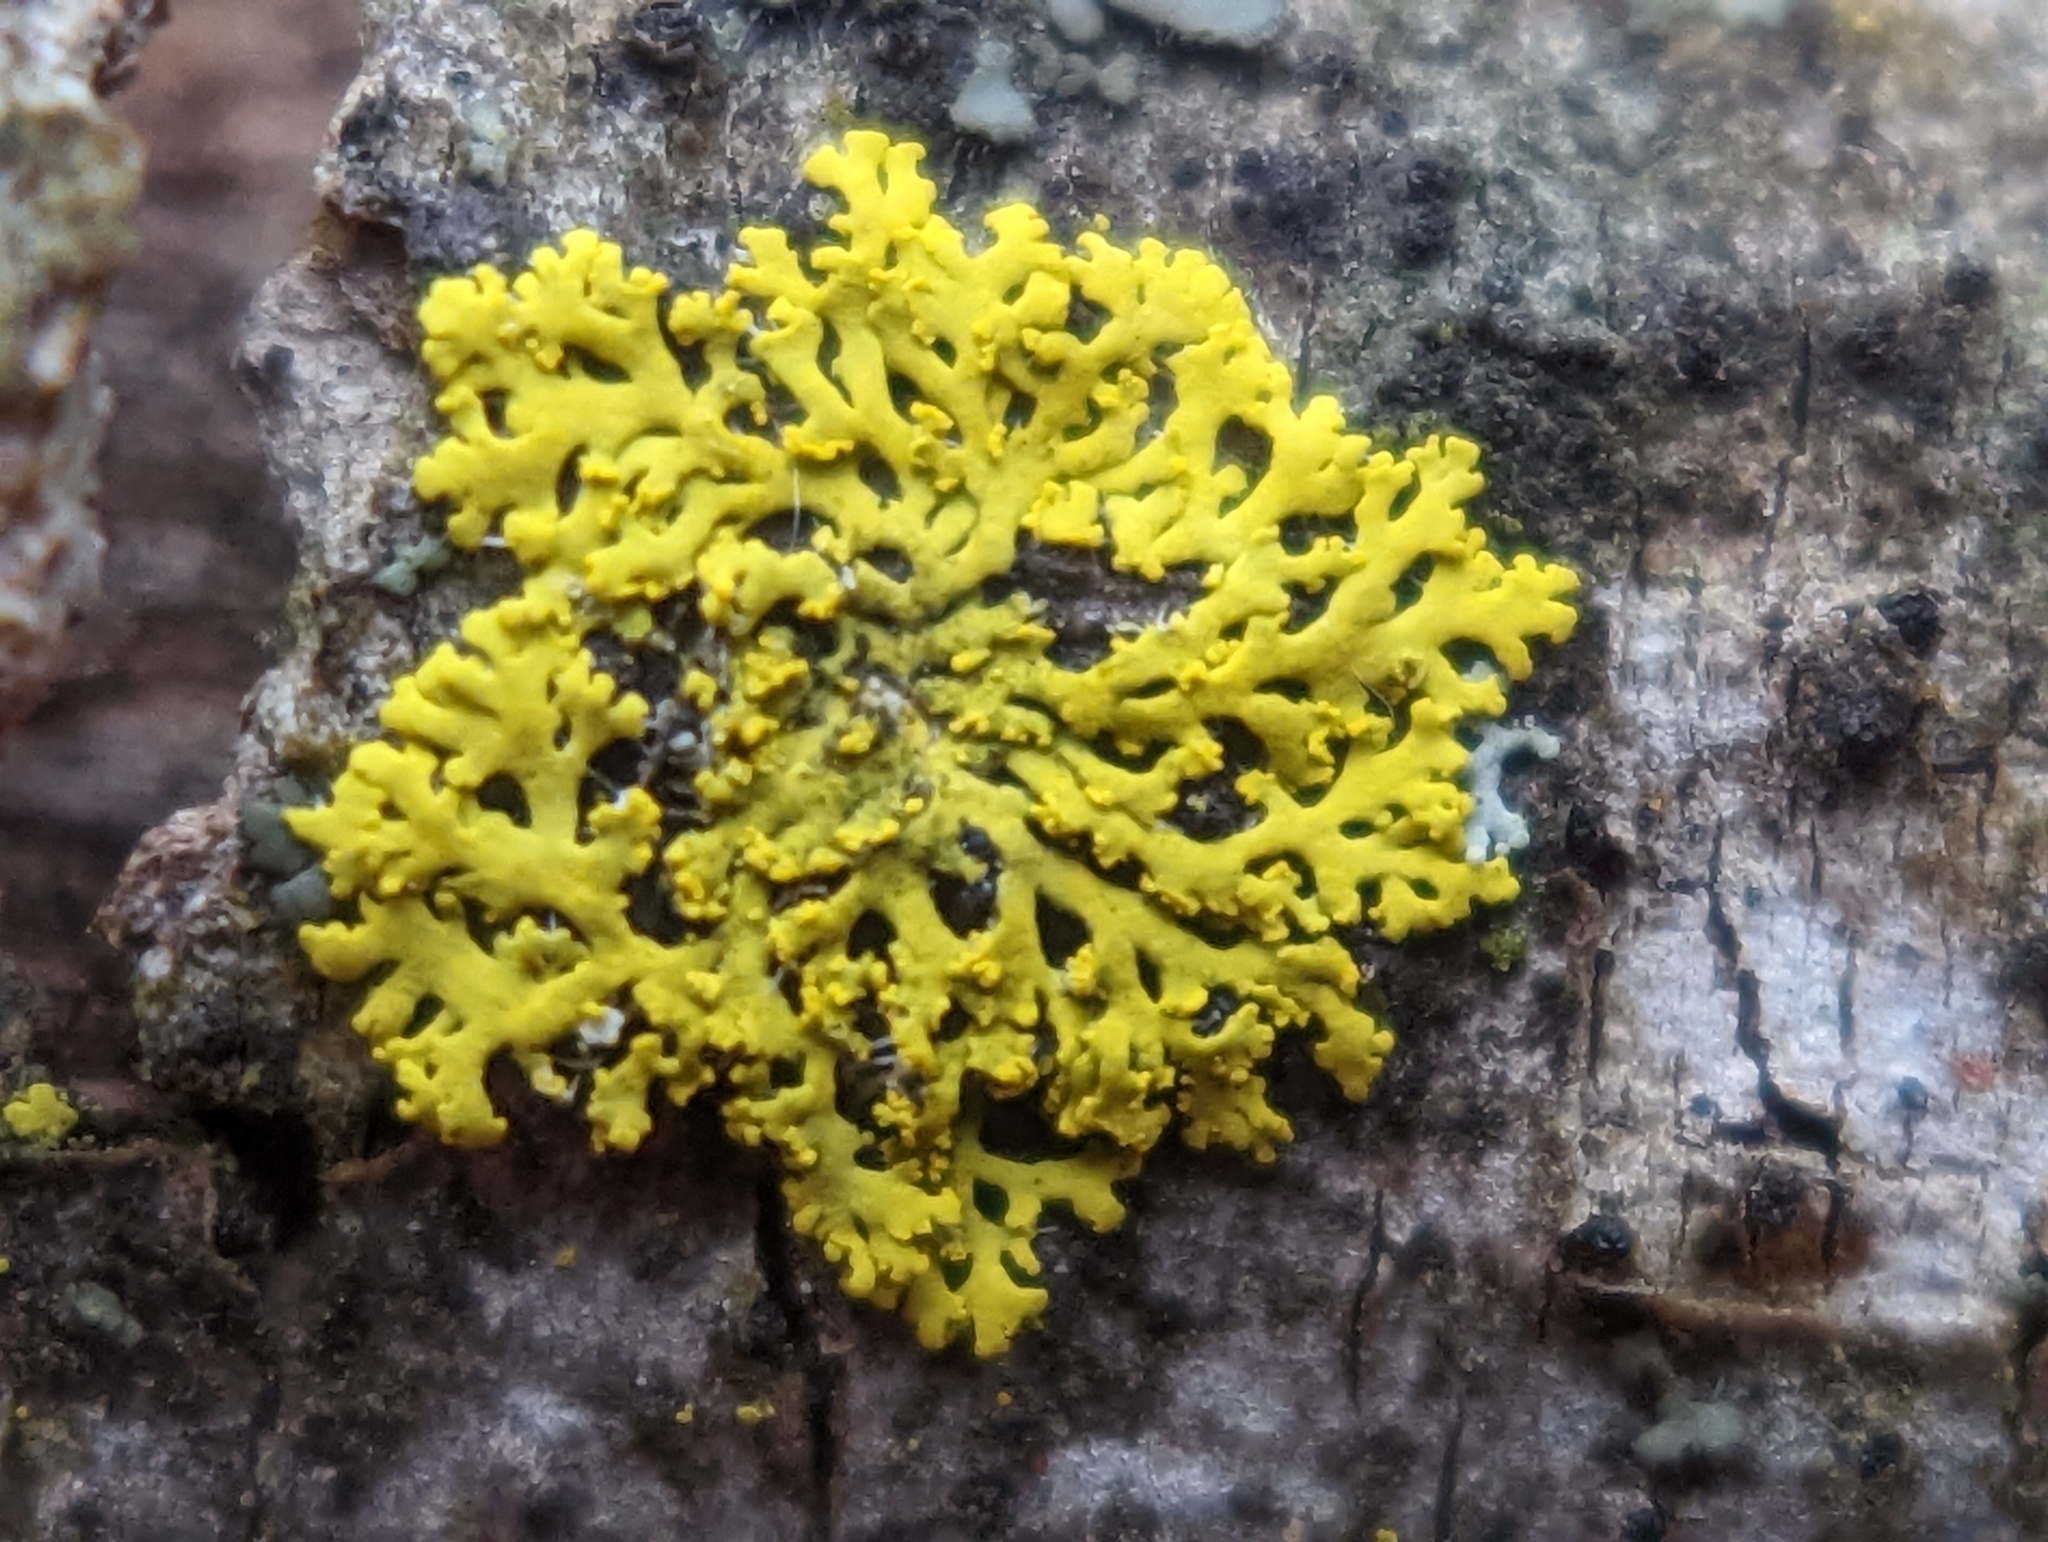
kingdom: Fungi
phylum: Ascomycota
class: Candelariomycetes
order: Candelariales
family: Candelariaceae
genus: Candelaria
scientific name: Candelaria concolor
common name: Candleflame lichen
